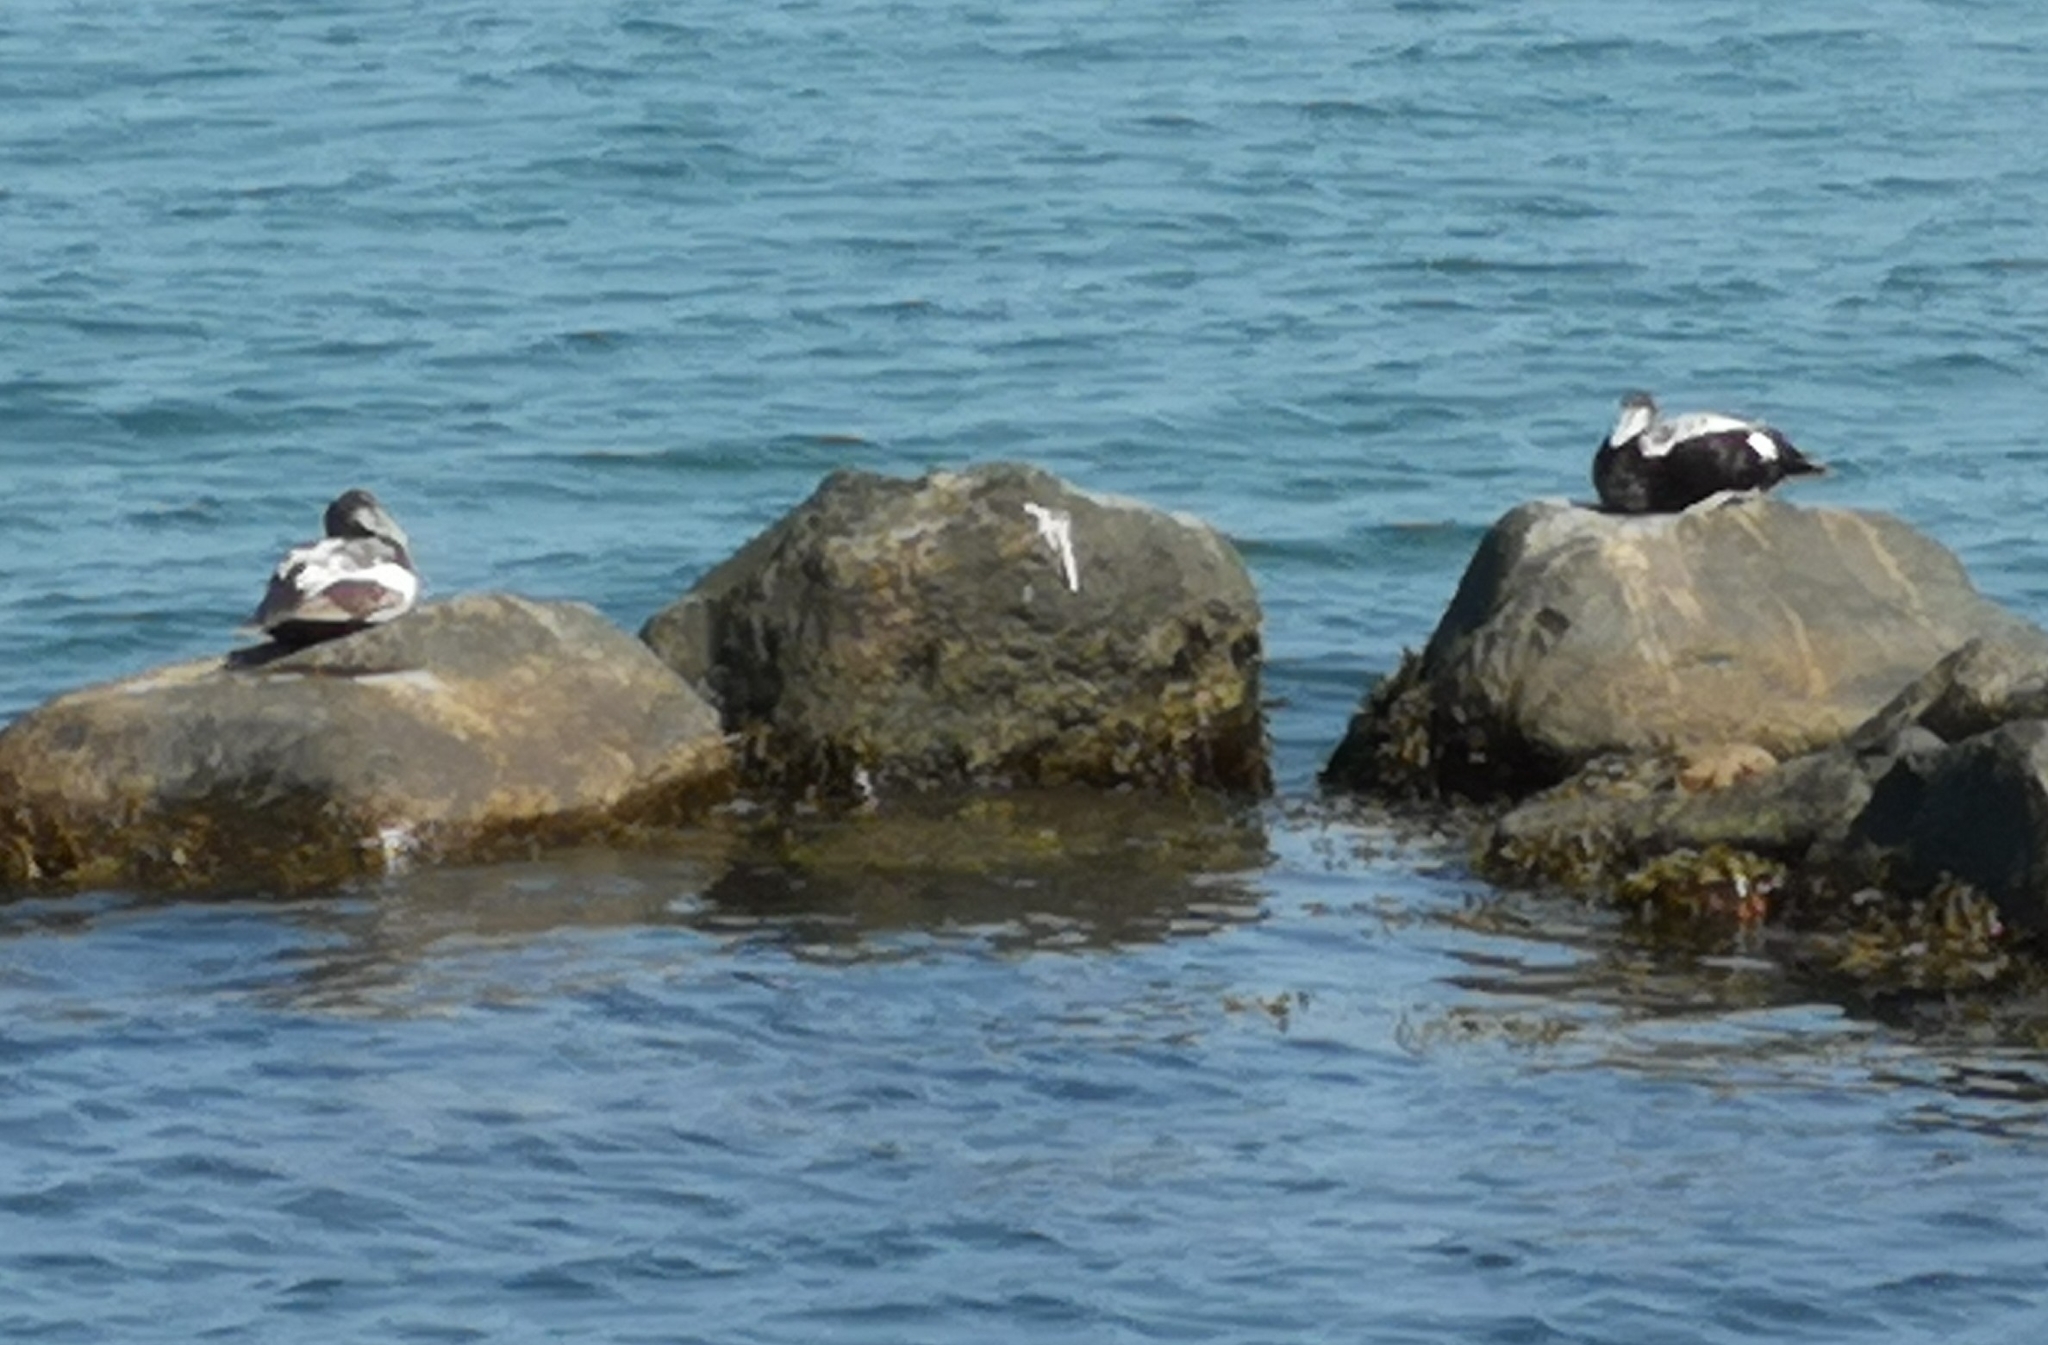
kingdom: Animalia
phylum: Chordata
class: Aves
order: Anseriformes
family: Anatidae
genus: Somateria
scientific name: Somateria mollissima
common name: Common eider
